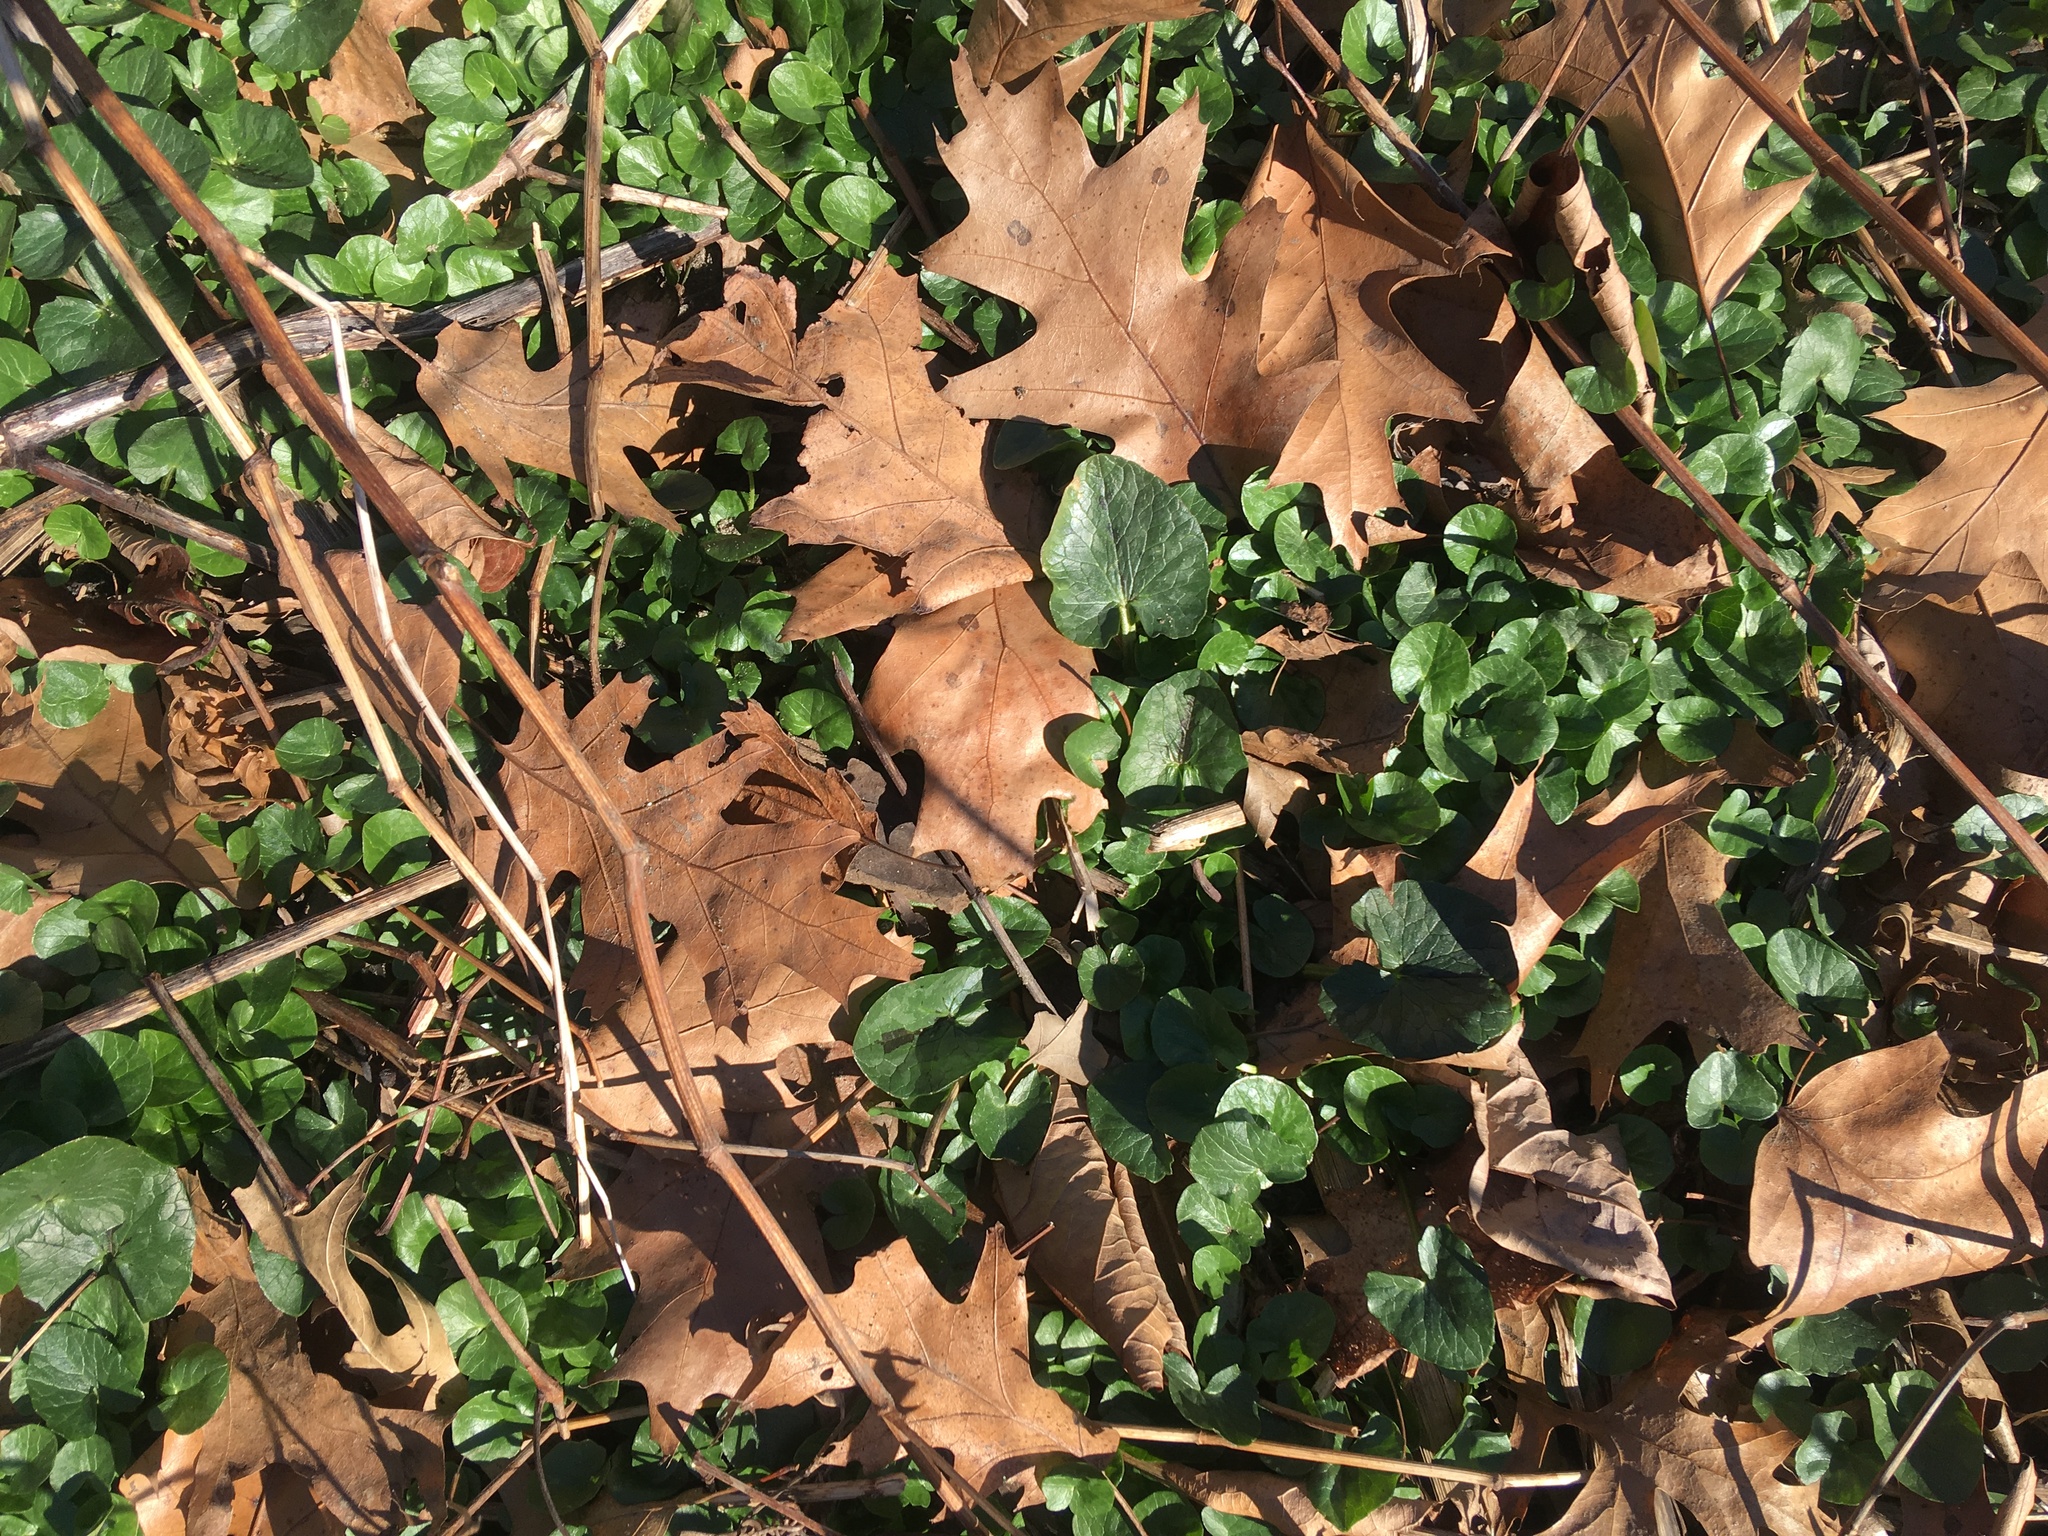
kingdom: Plantae
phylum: Tracheophyta
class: Magnoliopsida
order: Ranunculales
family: Ranunculaceae
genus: Ficaria
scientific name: Ficaria verna
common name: Lesser celandine
